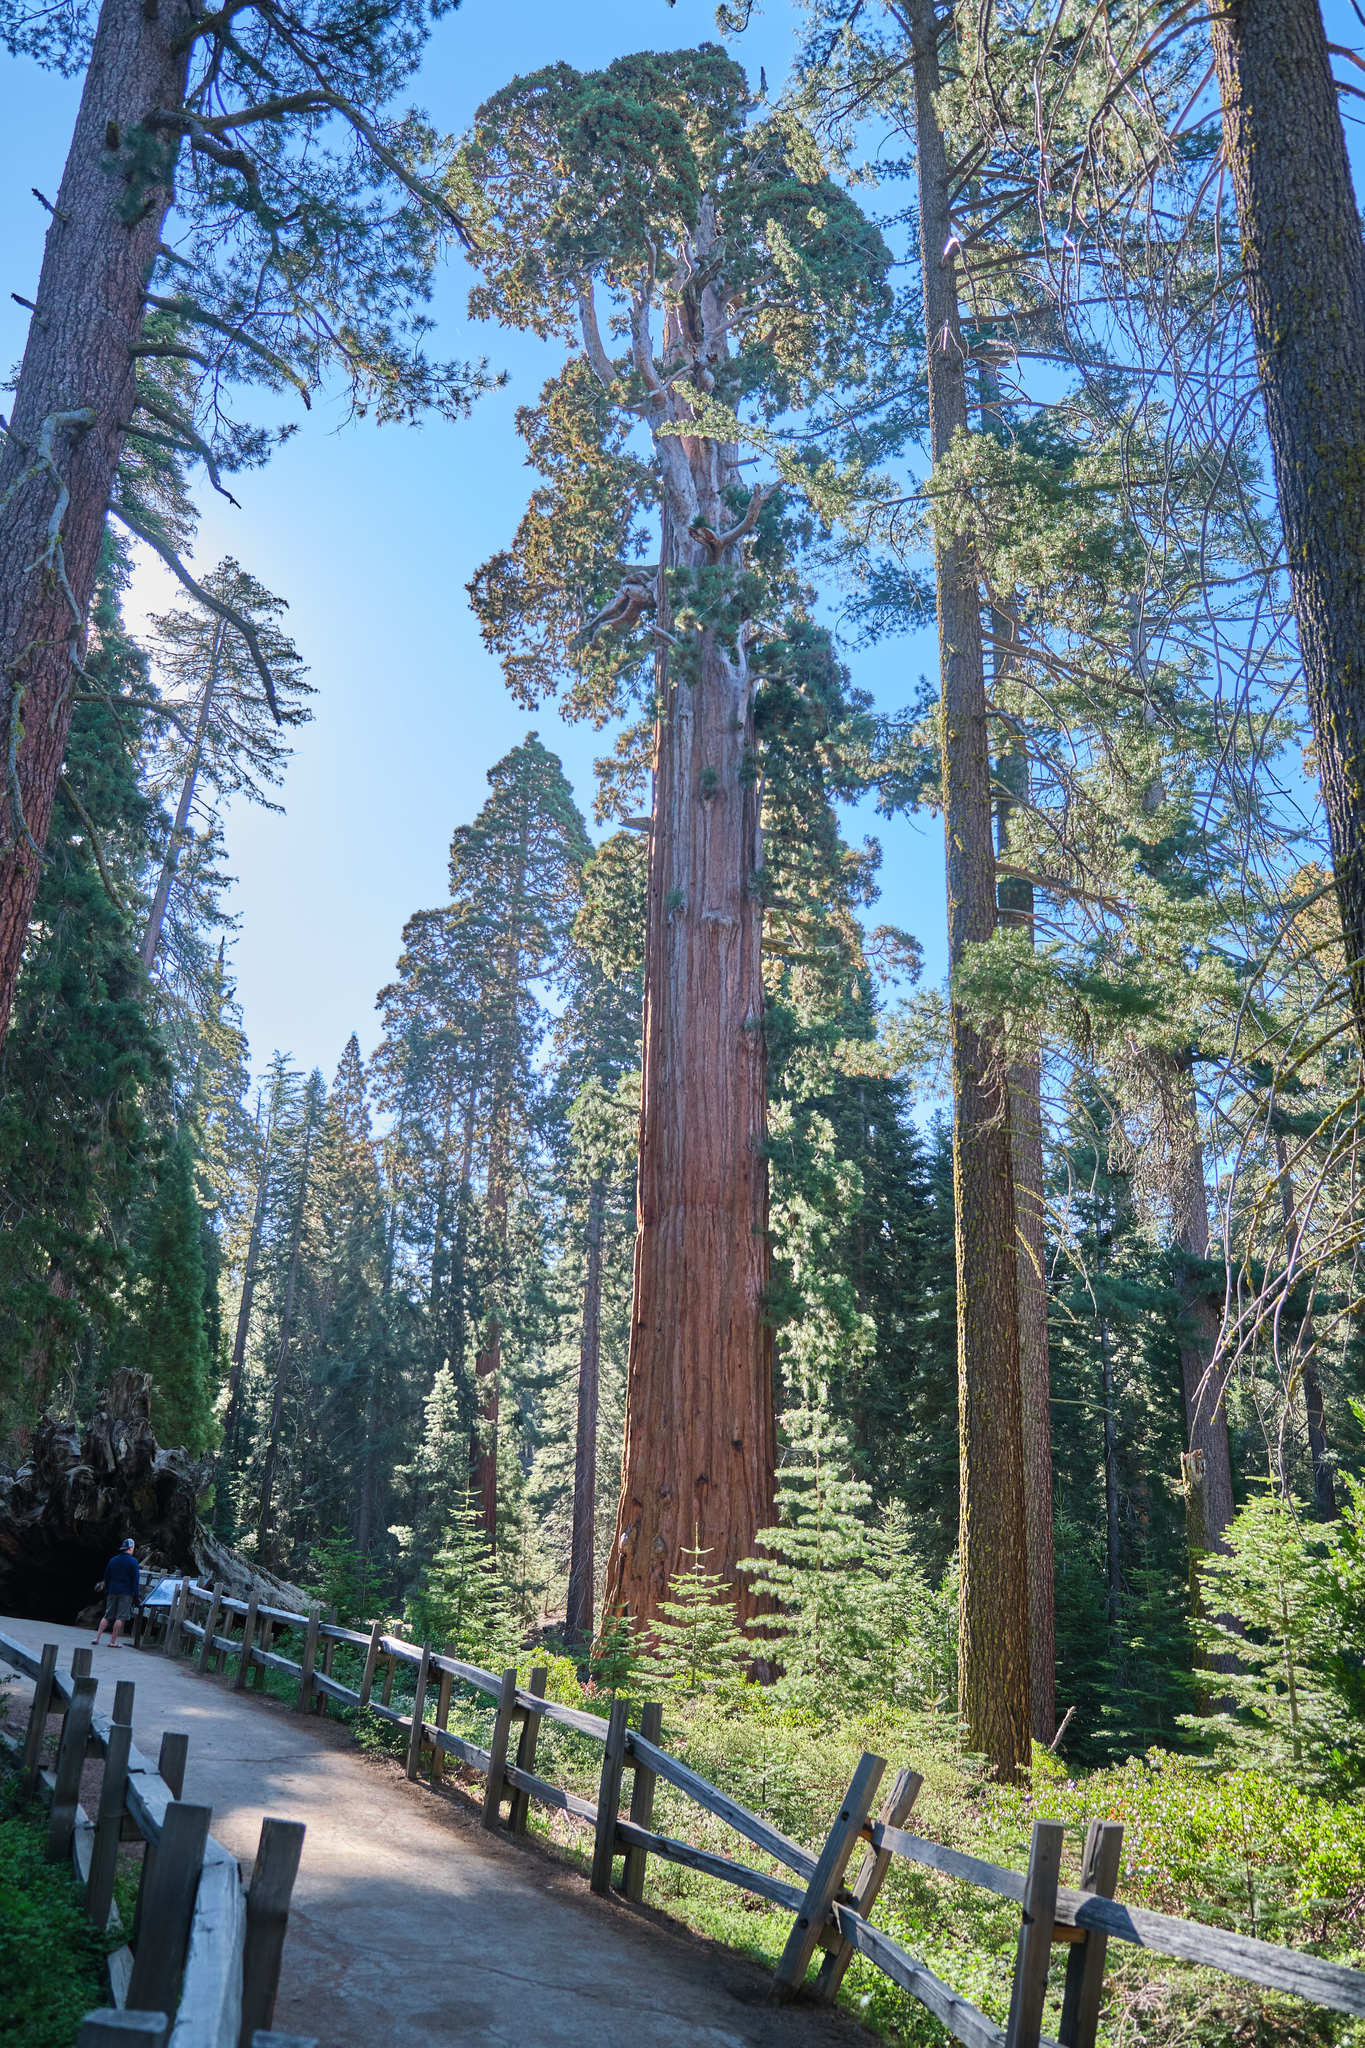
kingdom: Plantae
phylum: Tracheophyta
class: Pinopsida
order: Pinales
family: Cupressaceae
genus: Sequoiadendron
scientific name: Sequoiadendron giganteum
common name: Wellingtonia
